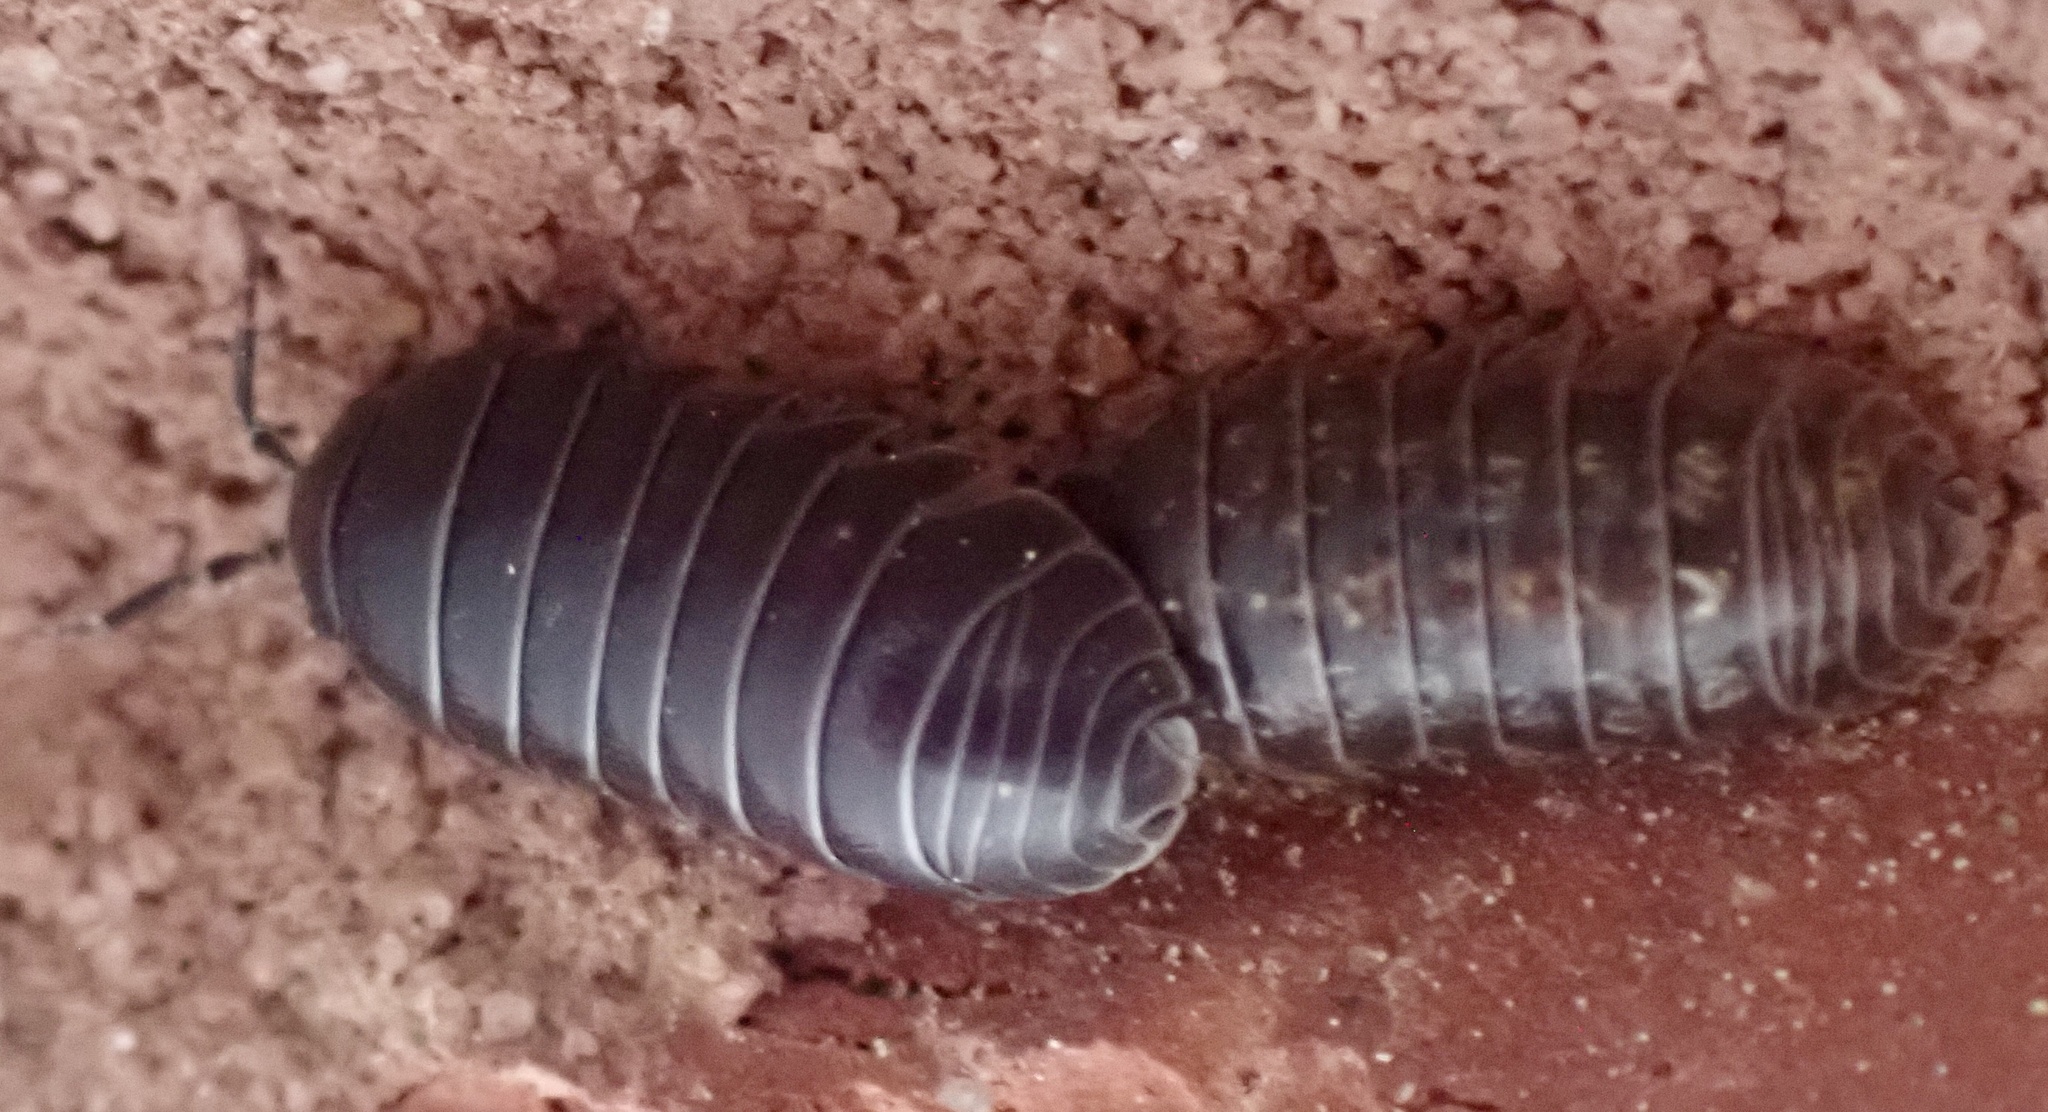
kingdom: Animalia
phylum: Arthropoda
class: Malacostraca
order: Isopoda
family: Armadillidiidae
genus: Armadillidium
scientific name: Armadillidium vulgare
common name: Common pill woodlouse
